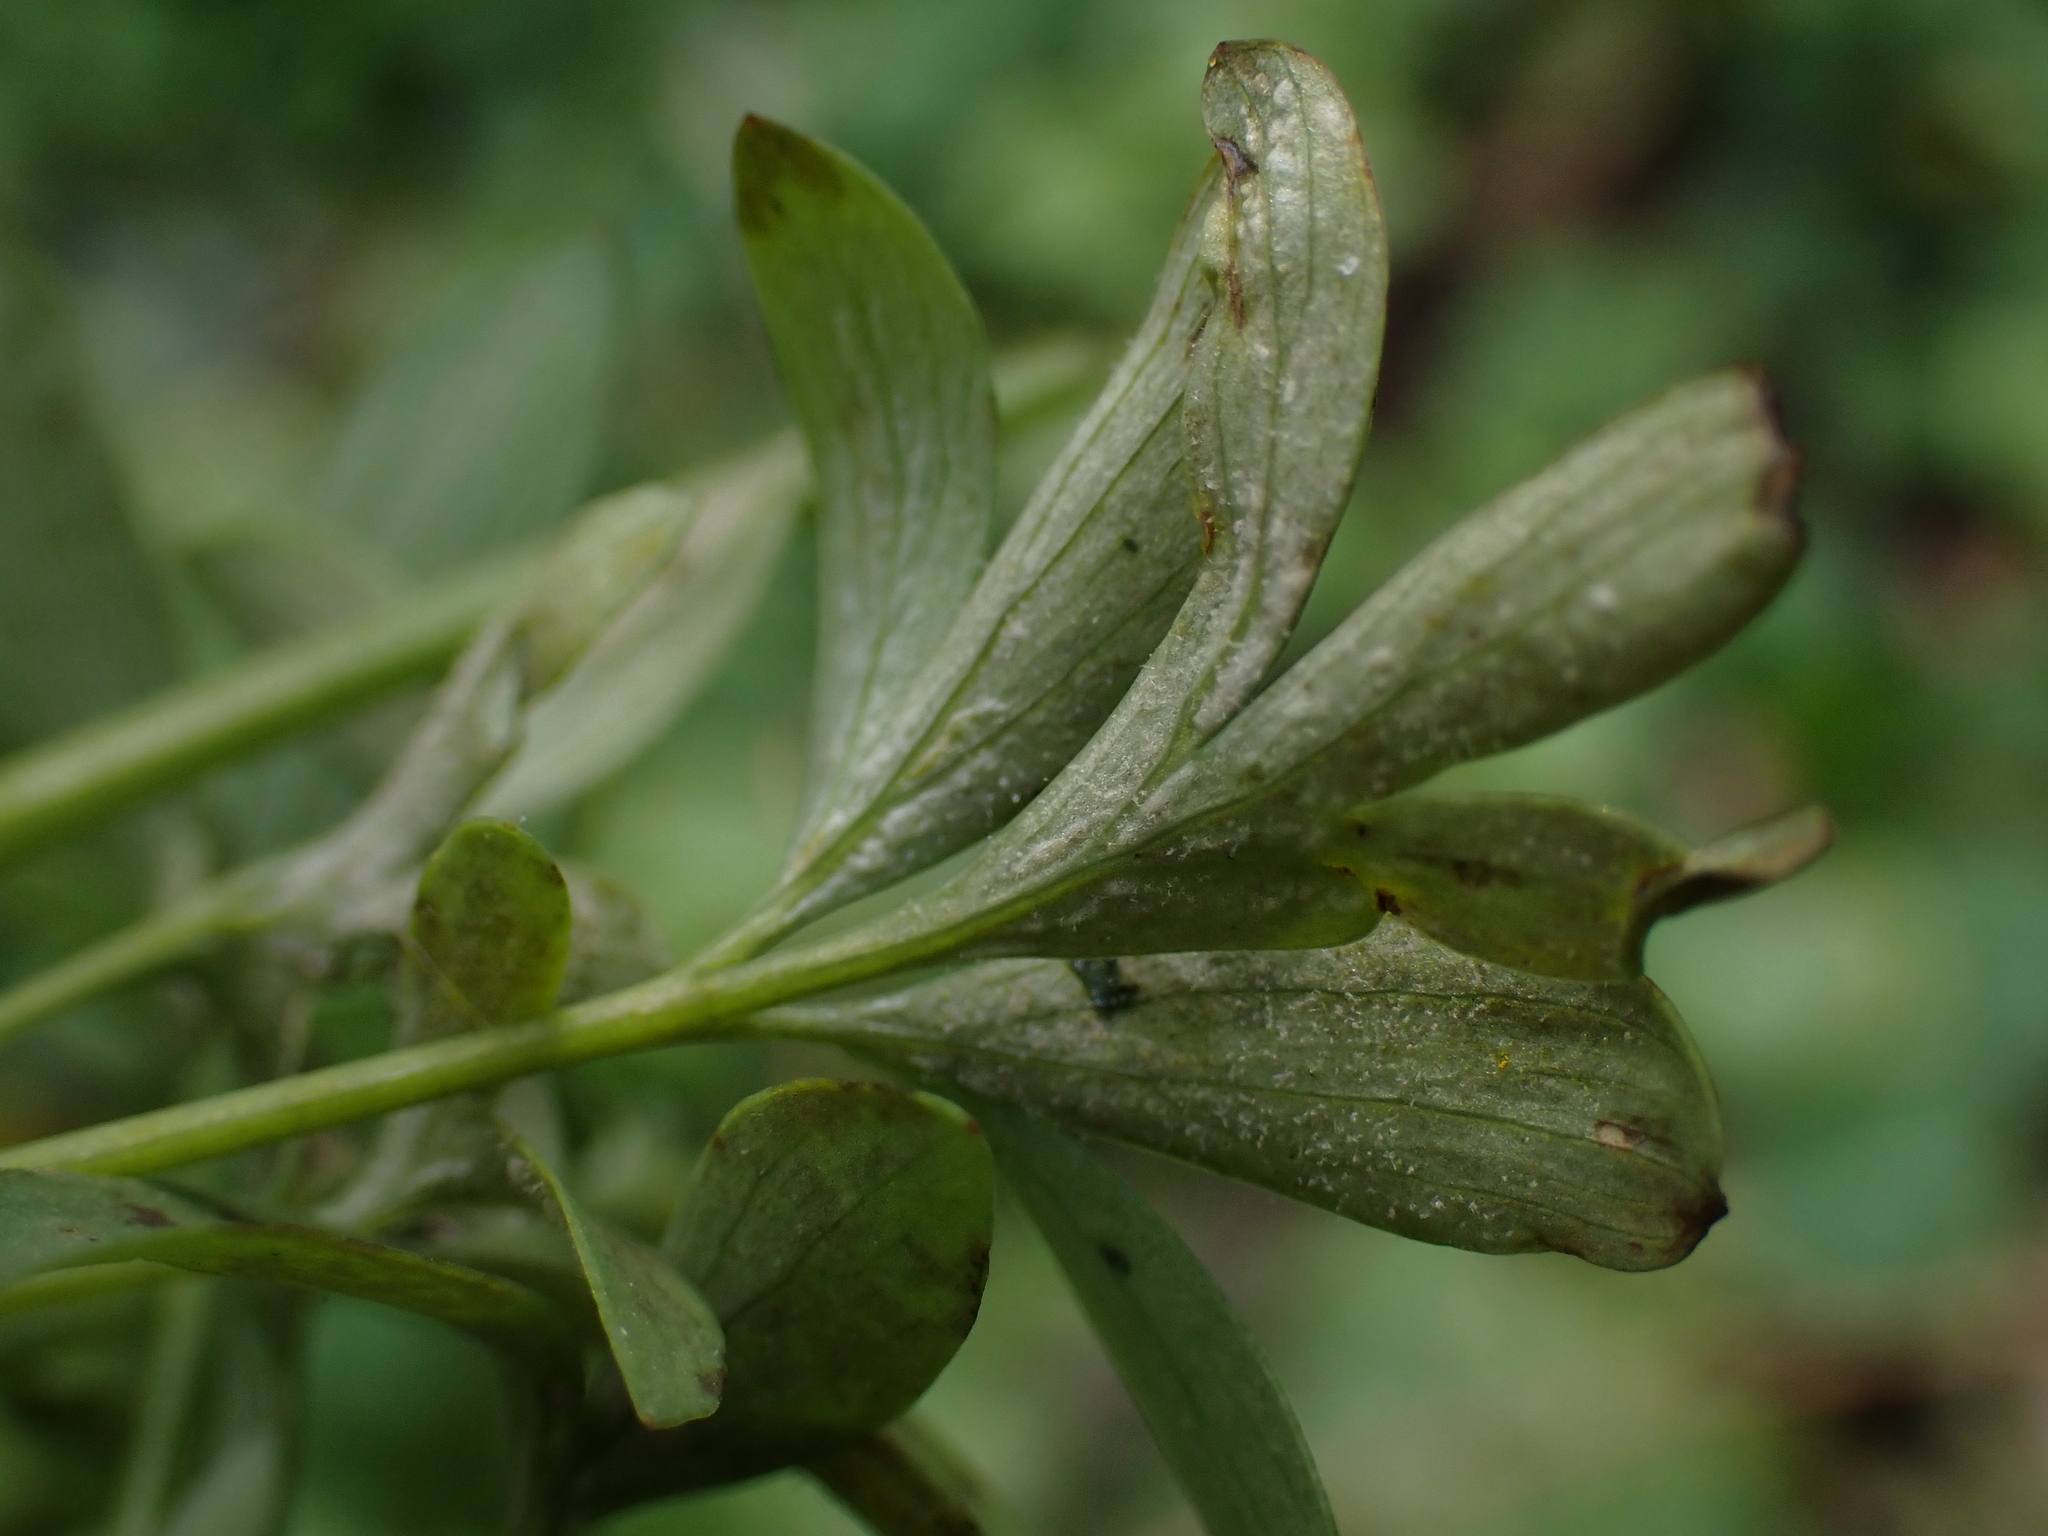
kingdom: Chromista
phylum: Oomycota
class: Peronosporea
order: Peronosporales
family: Peronosporaceae
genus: Peronospora
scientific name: Peronospora corydalis
